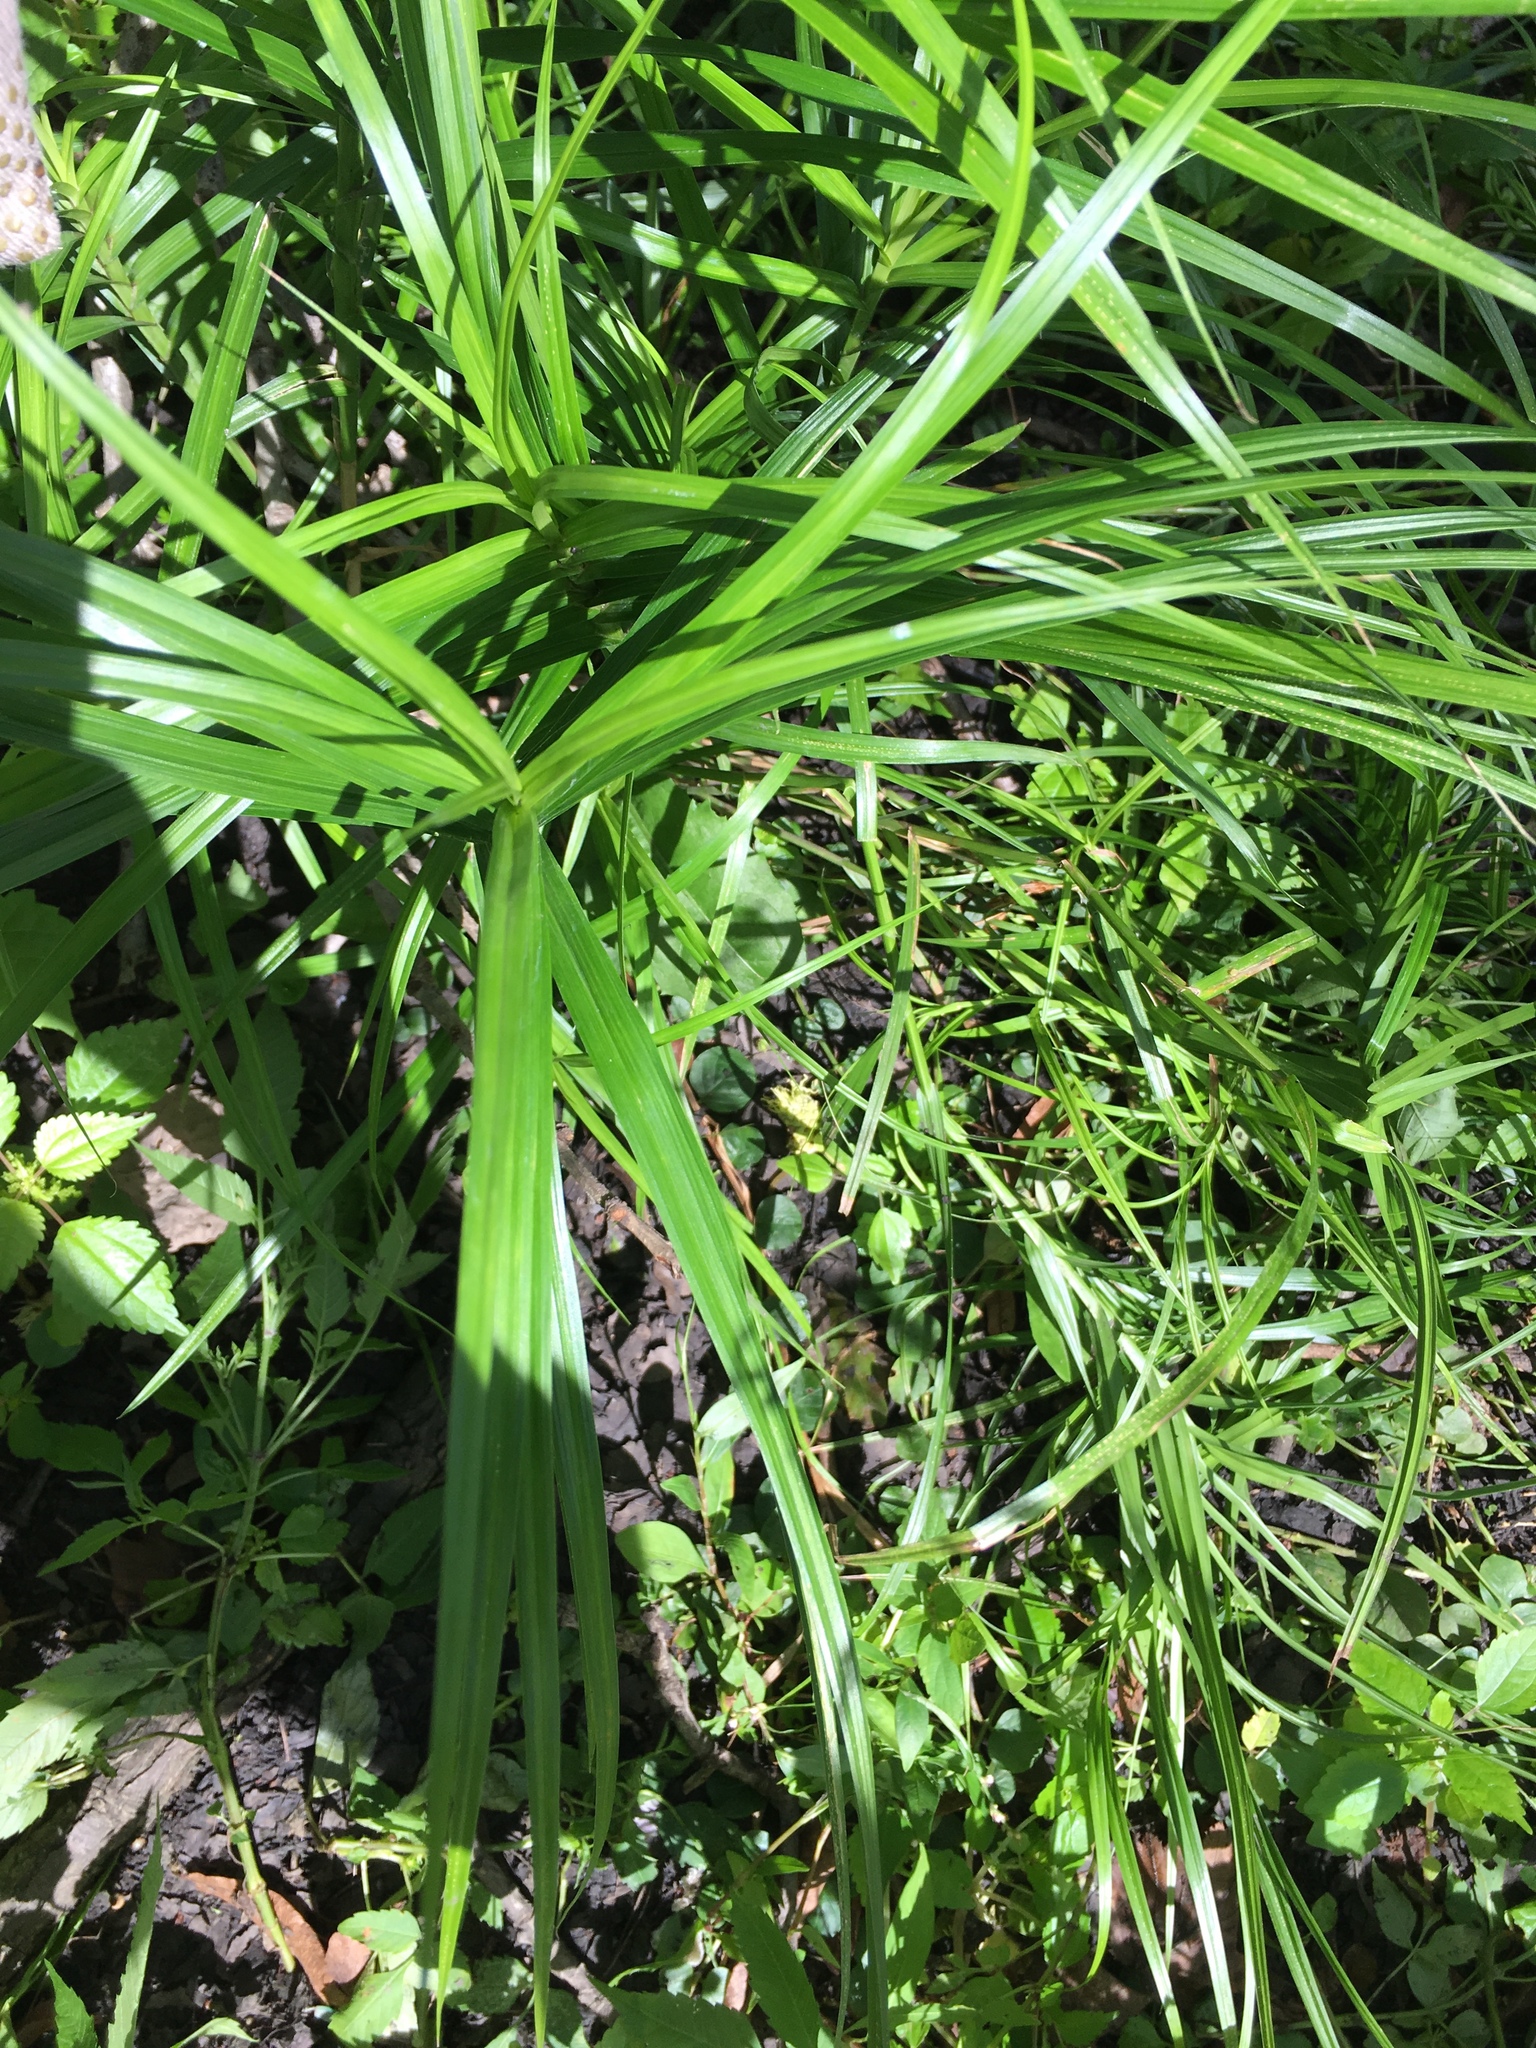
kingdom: Plantae
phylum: Tracheophyta
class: Liliopsida
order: Poales
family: Cyperaceae
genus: Carex
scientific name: Carex muskingumensis
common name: Muskingum sedge
